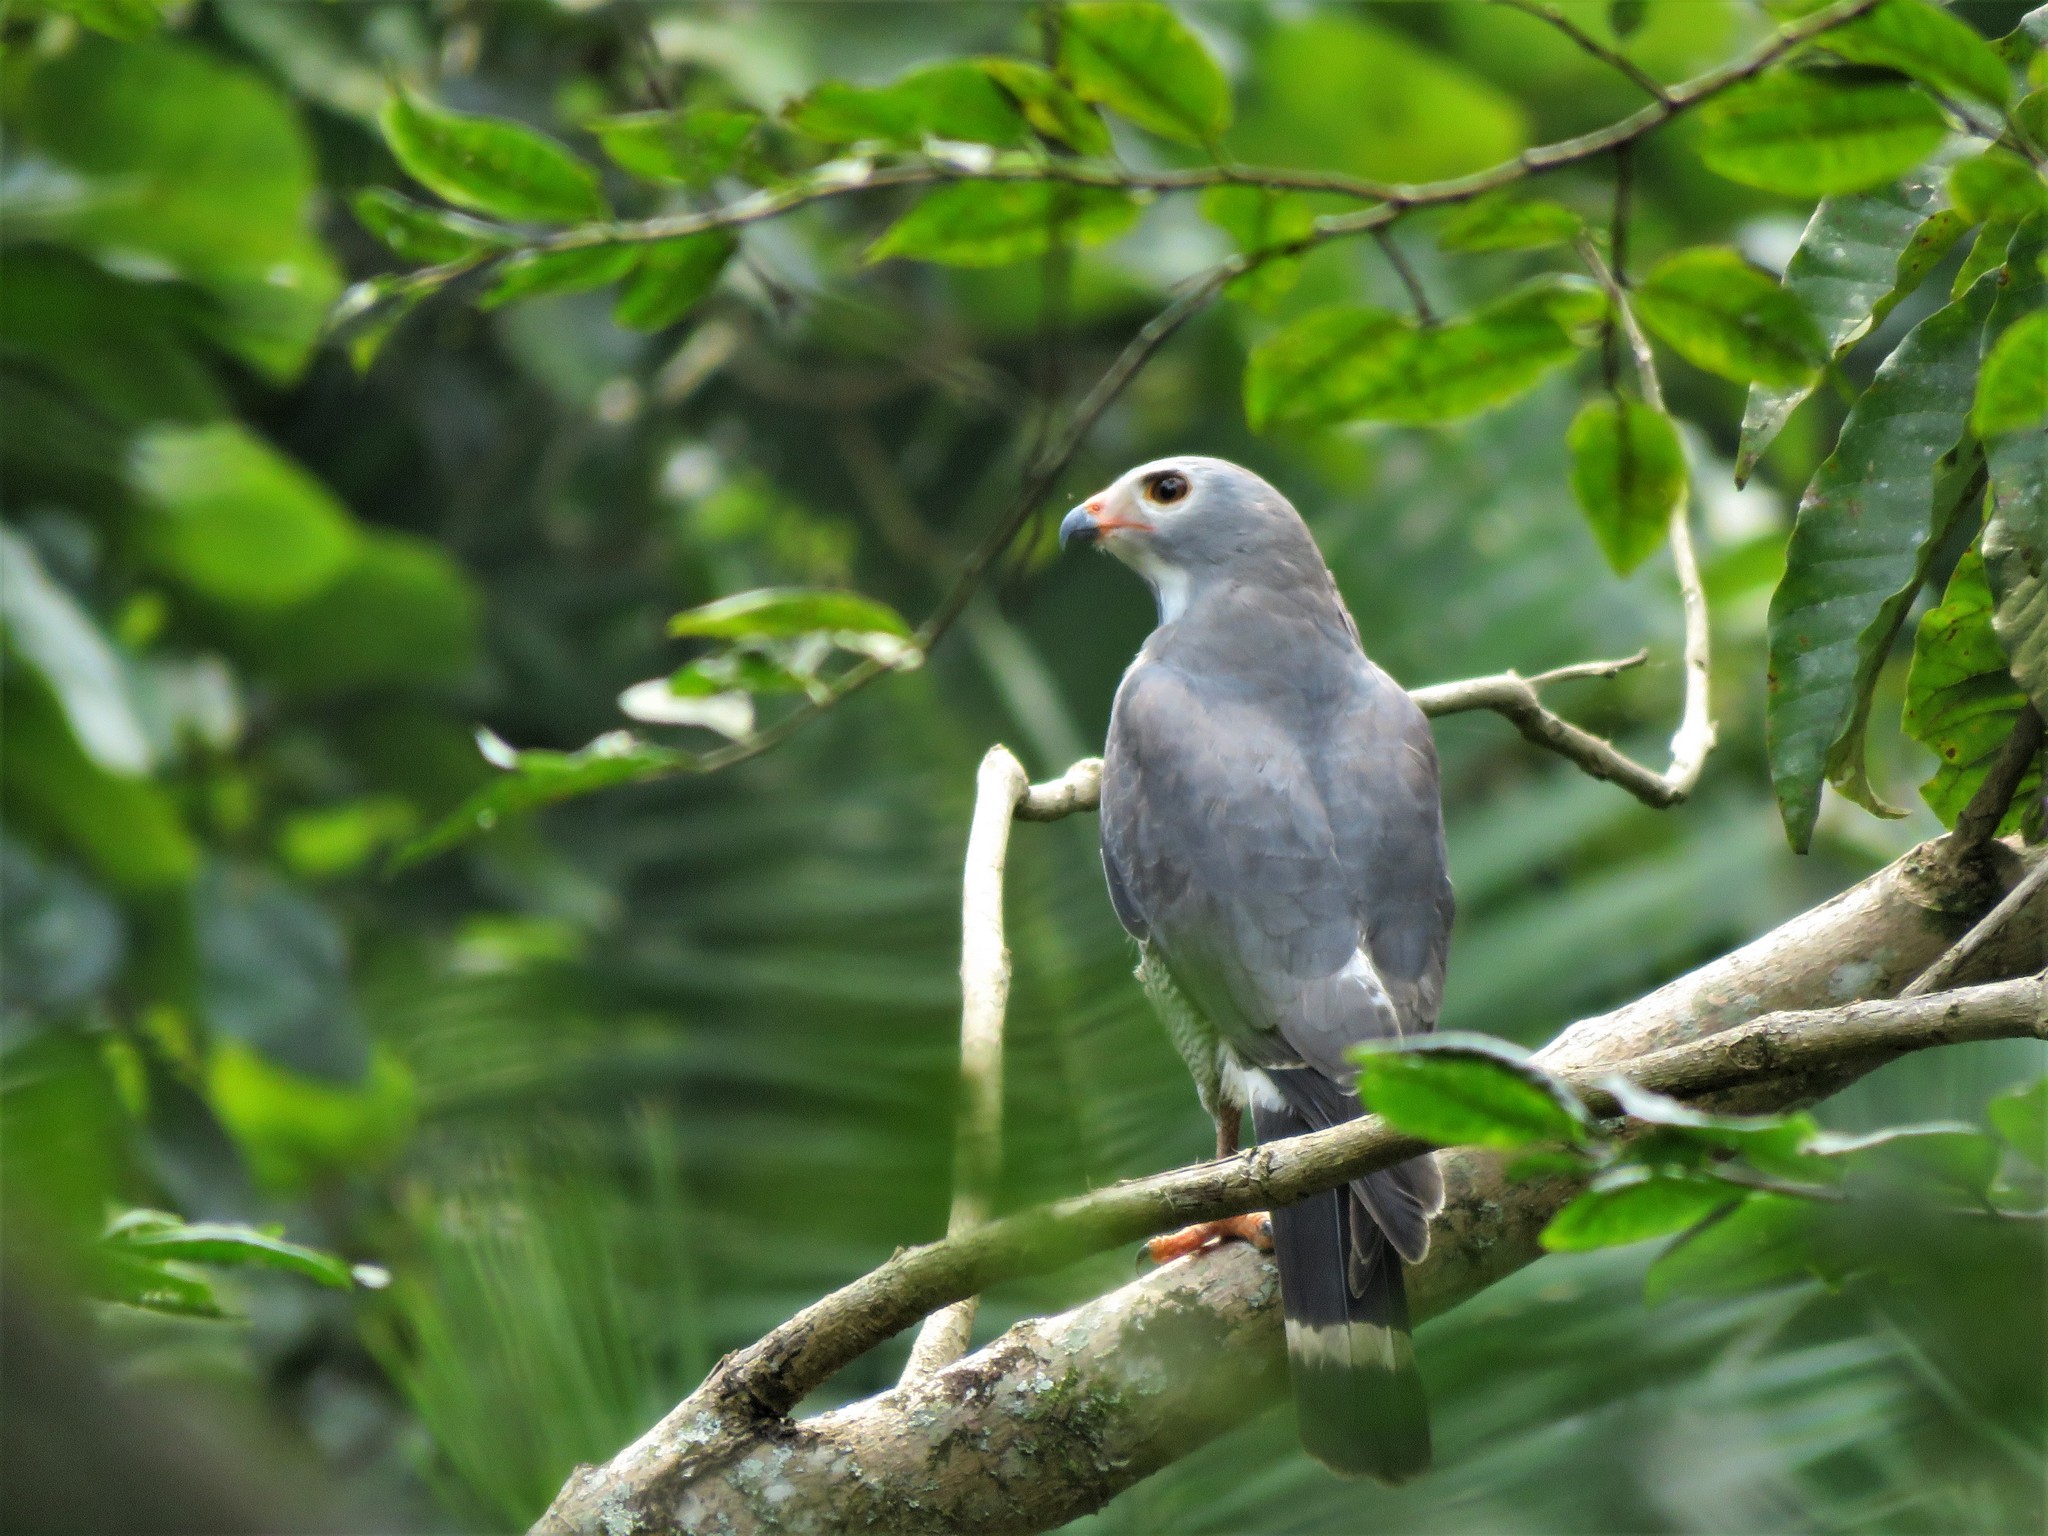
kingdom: Animalia
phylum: Chordata
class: Aves
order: Accipitriformes
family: Accipitridae
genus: Kaupifalco
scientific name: Kaupifalco monogrammicus
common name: Lizard buzzard
